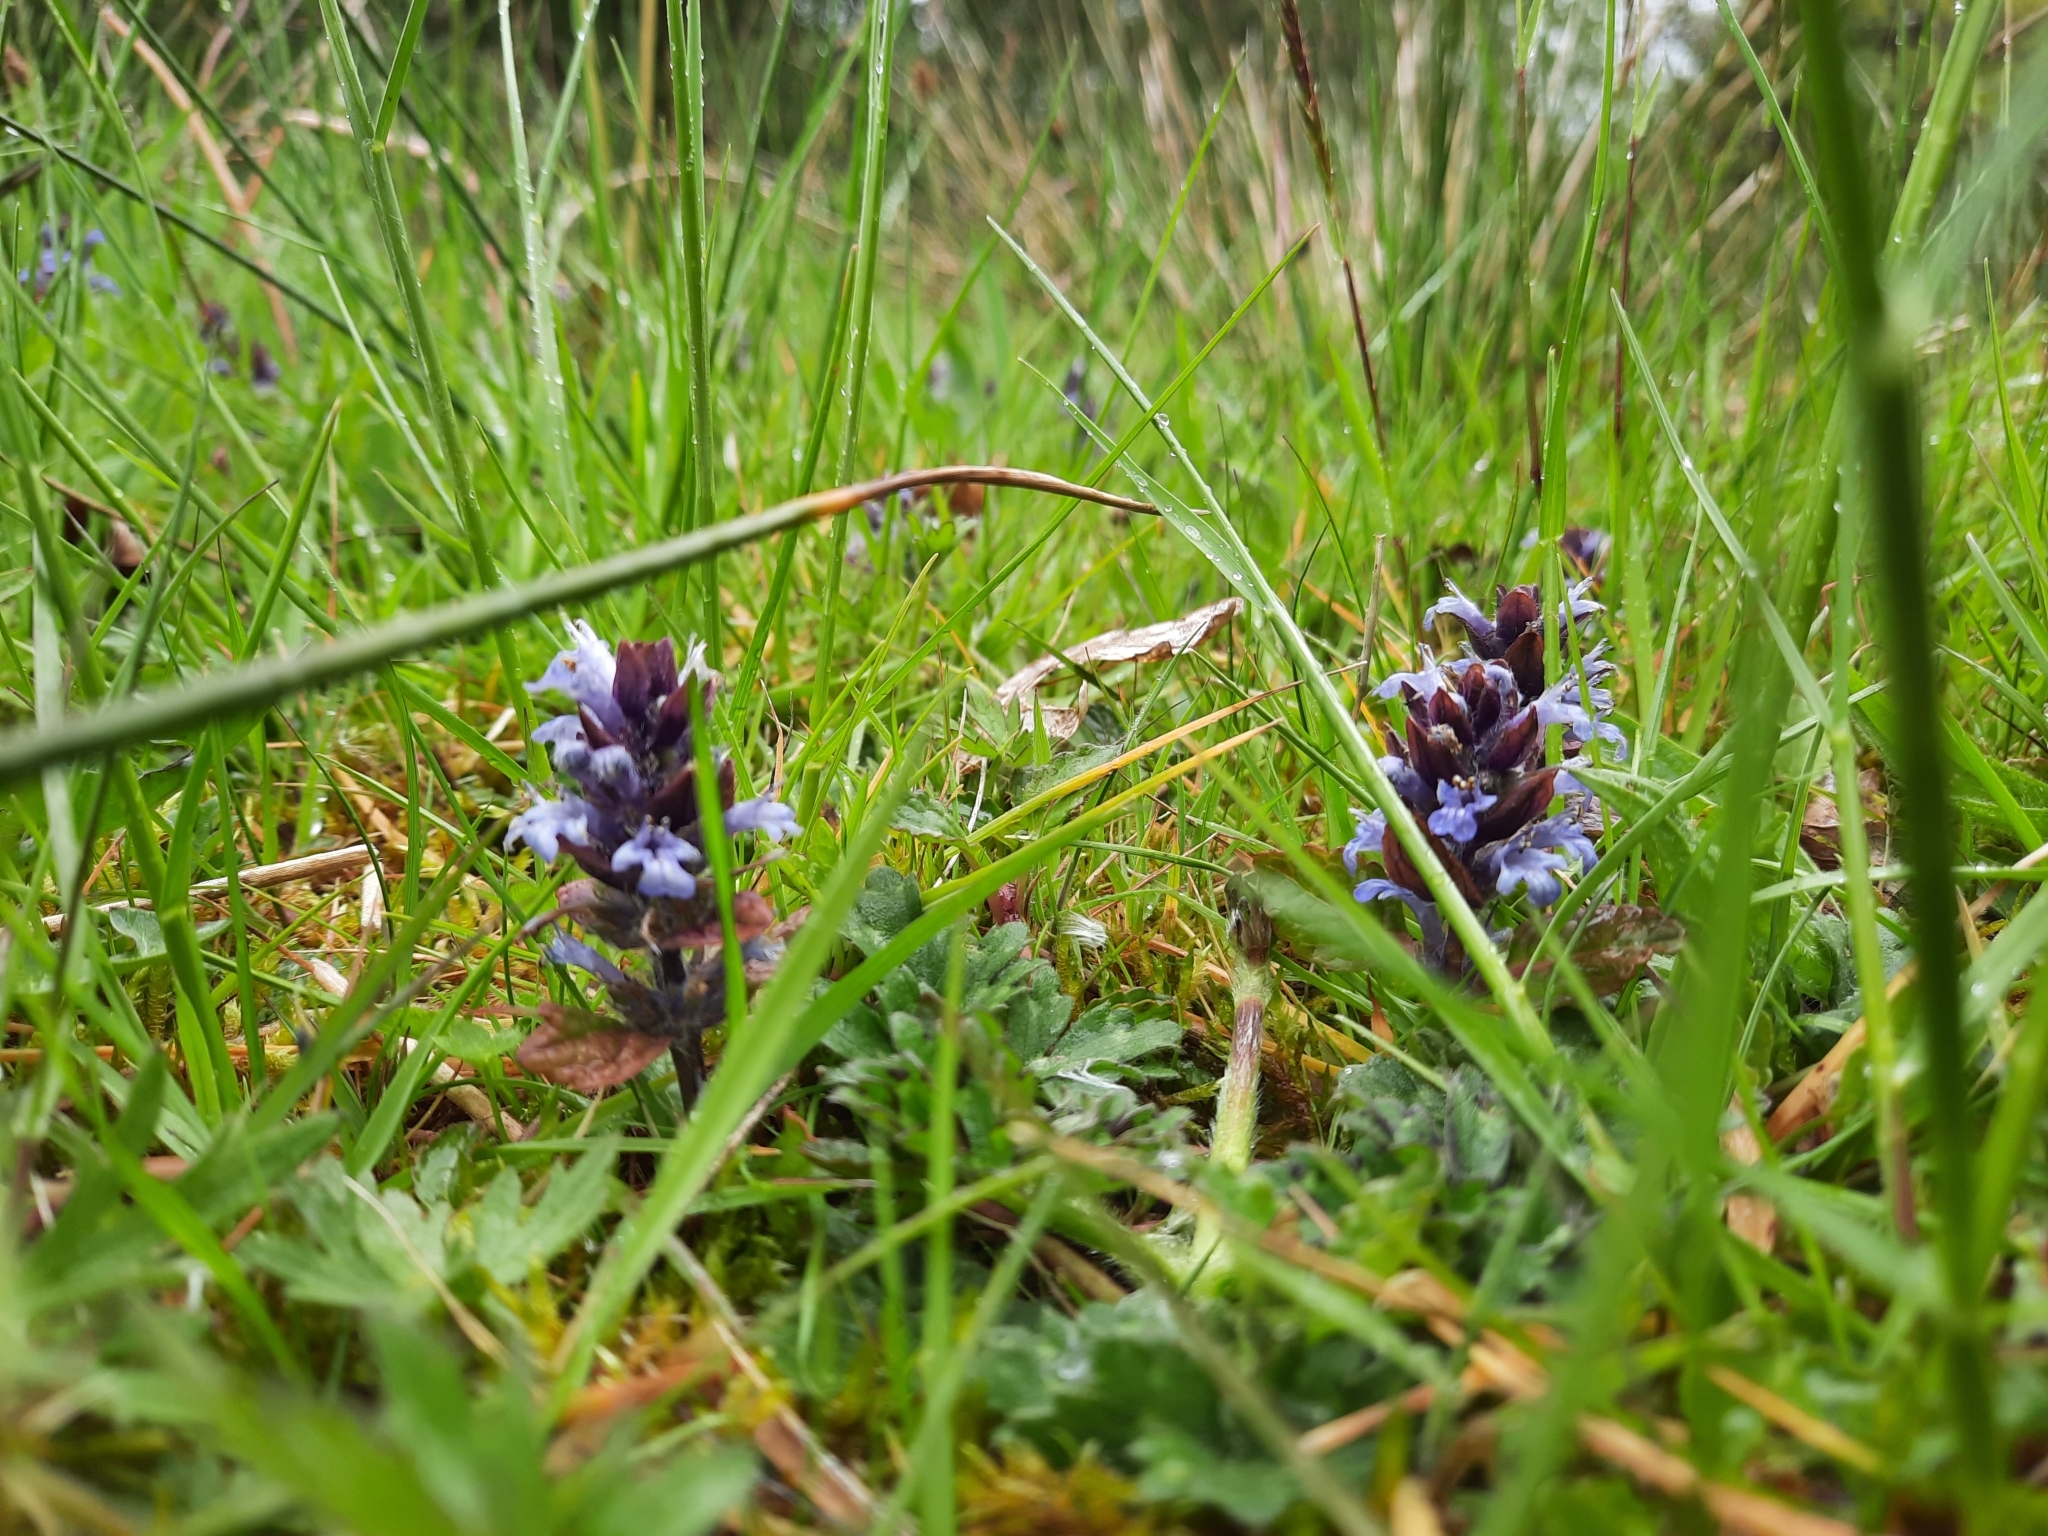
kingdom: Plantae
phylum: Tracheophyta
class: Magnoliopsida
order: Lamiales
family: Lamiaceae
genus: Ajuga
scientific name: Ajuga reptans
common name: Bugle
